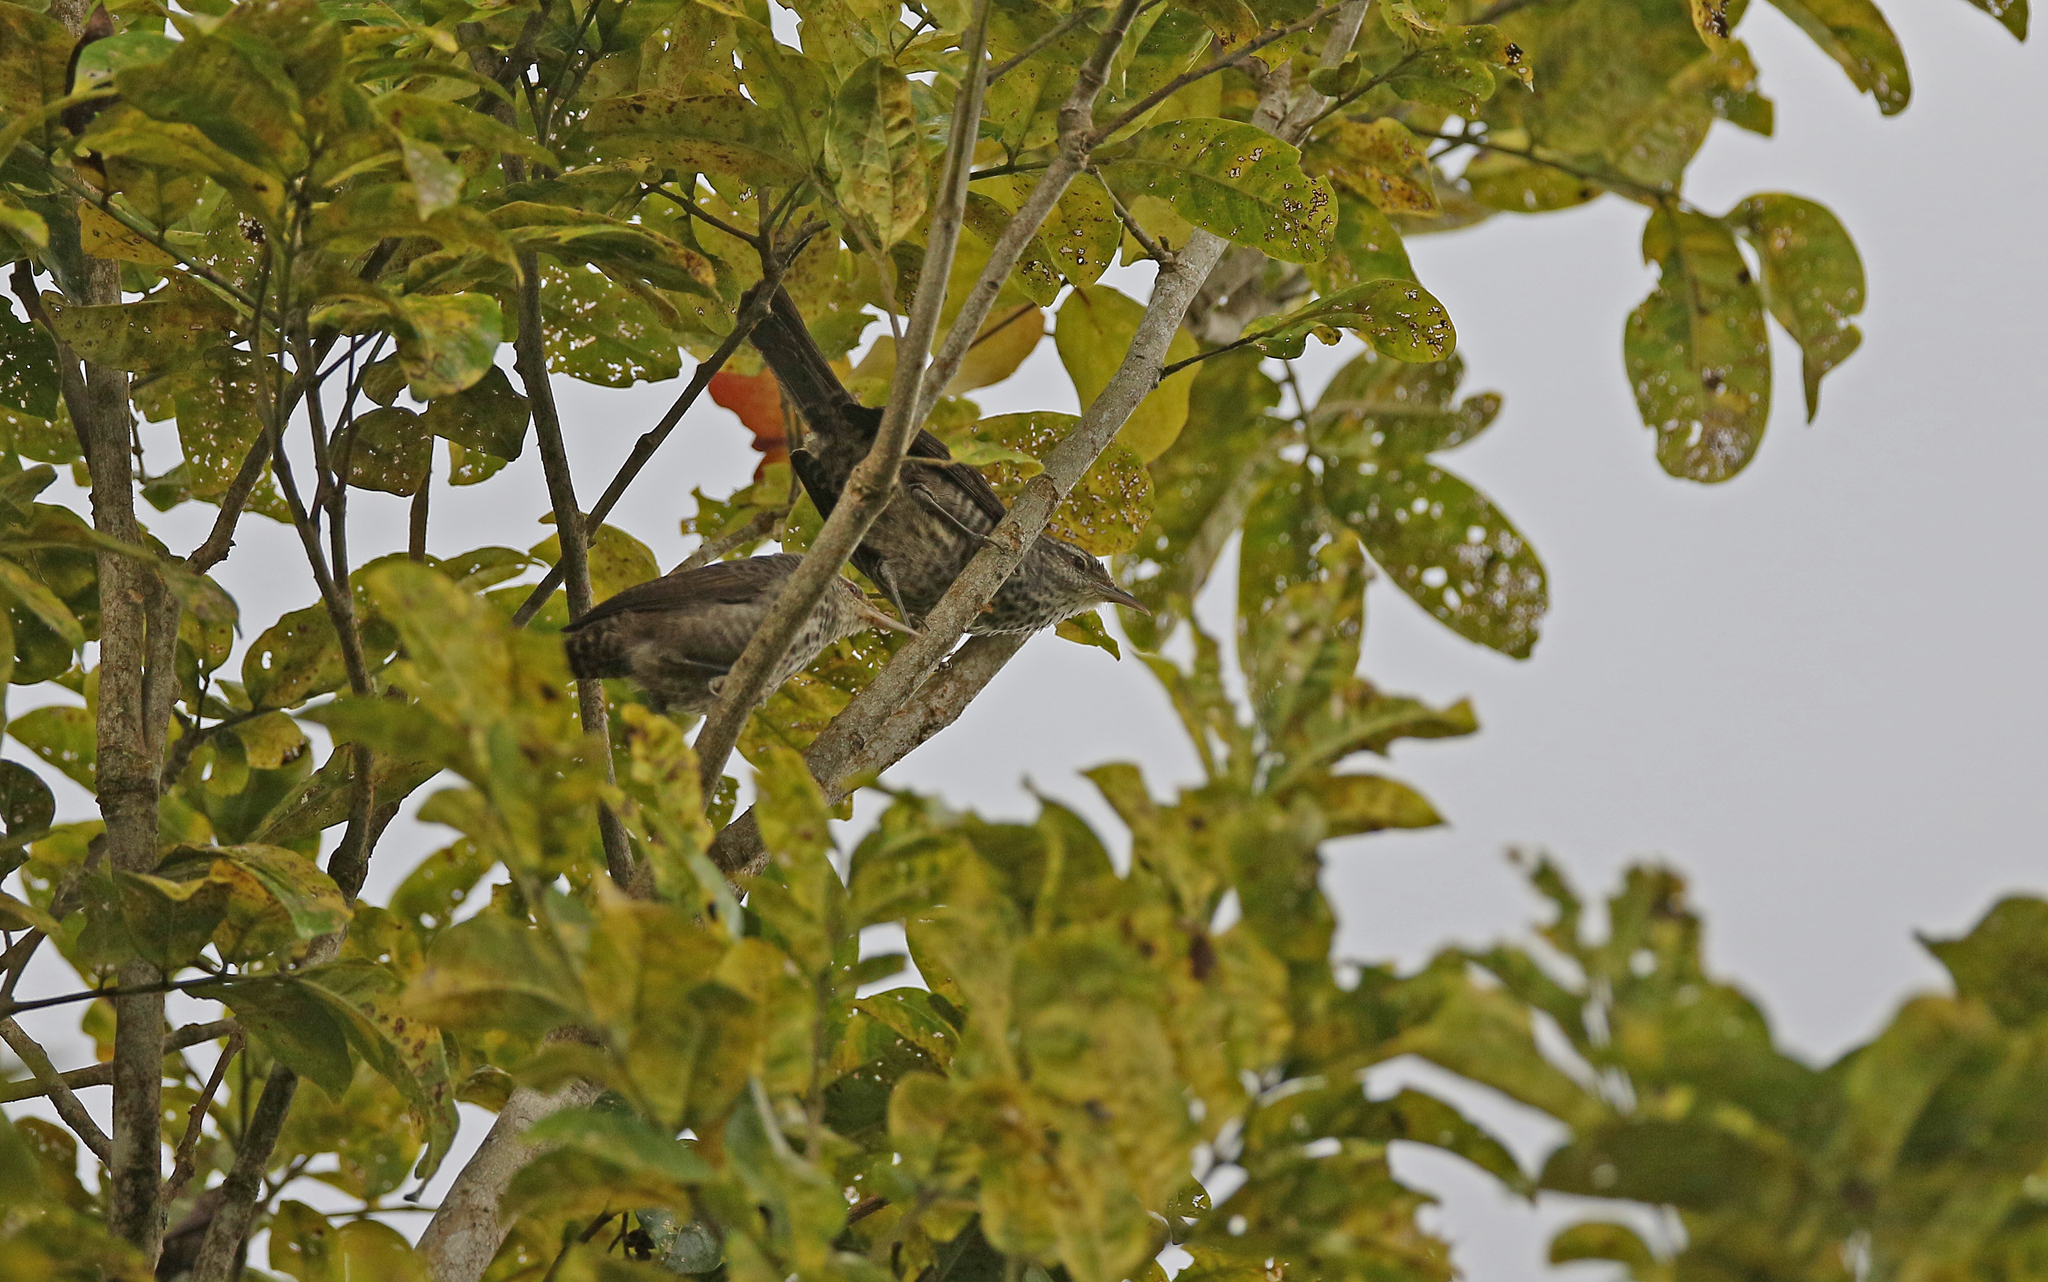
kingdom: Animalia
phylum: Chordata
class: Aves
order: Passeriformes
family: Troglodytidae
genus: Campylorhynchus
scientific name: Campylorhynchus turdinus
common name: Thrush-like wren
